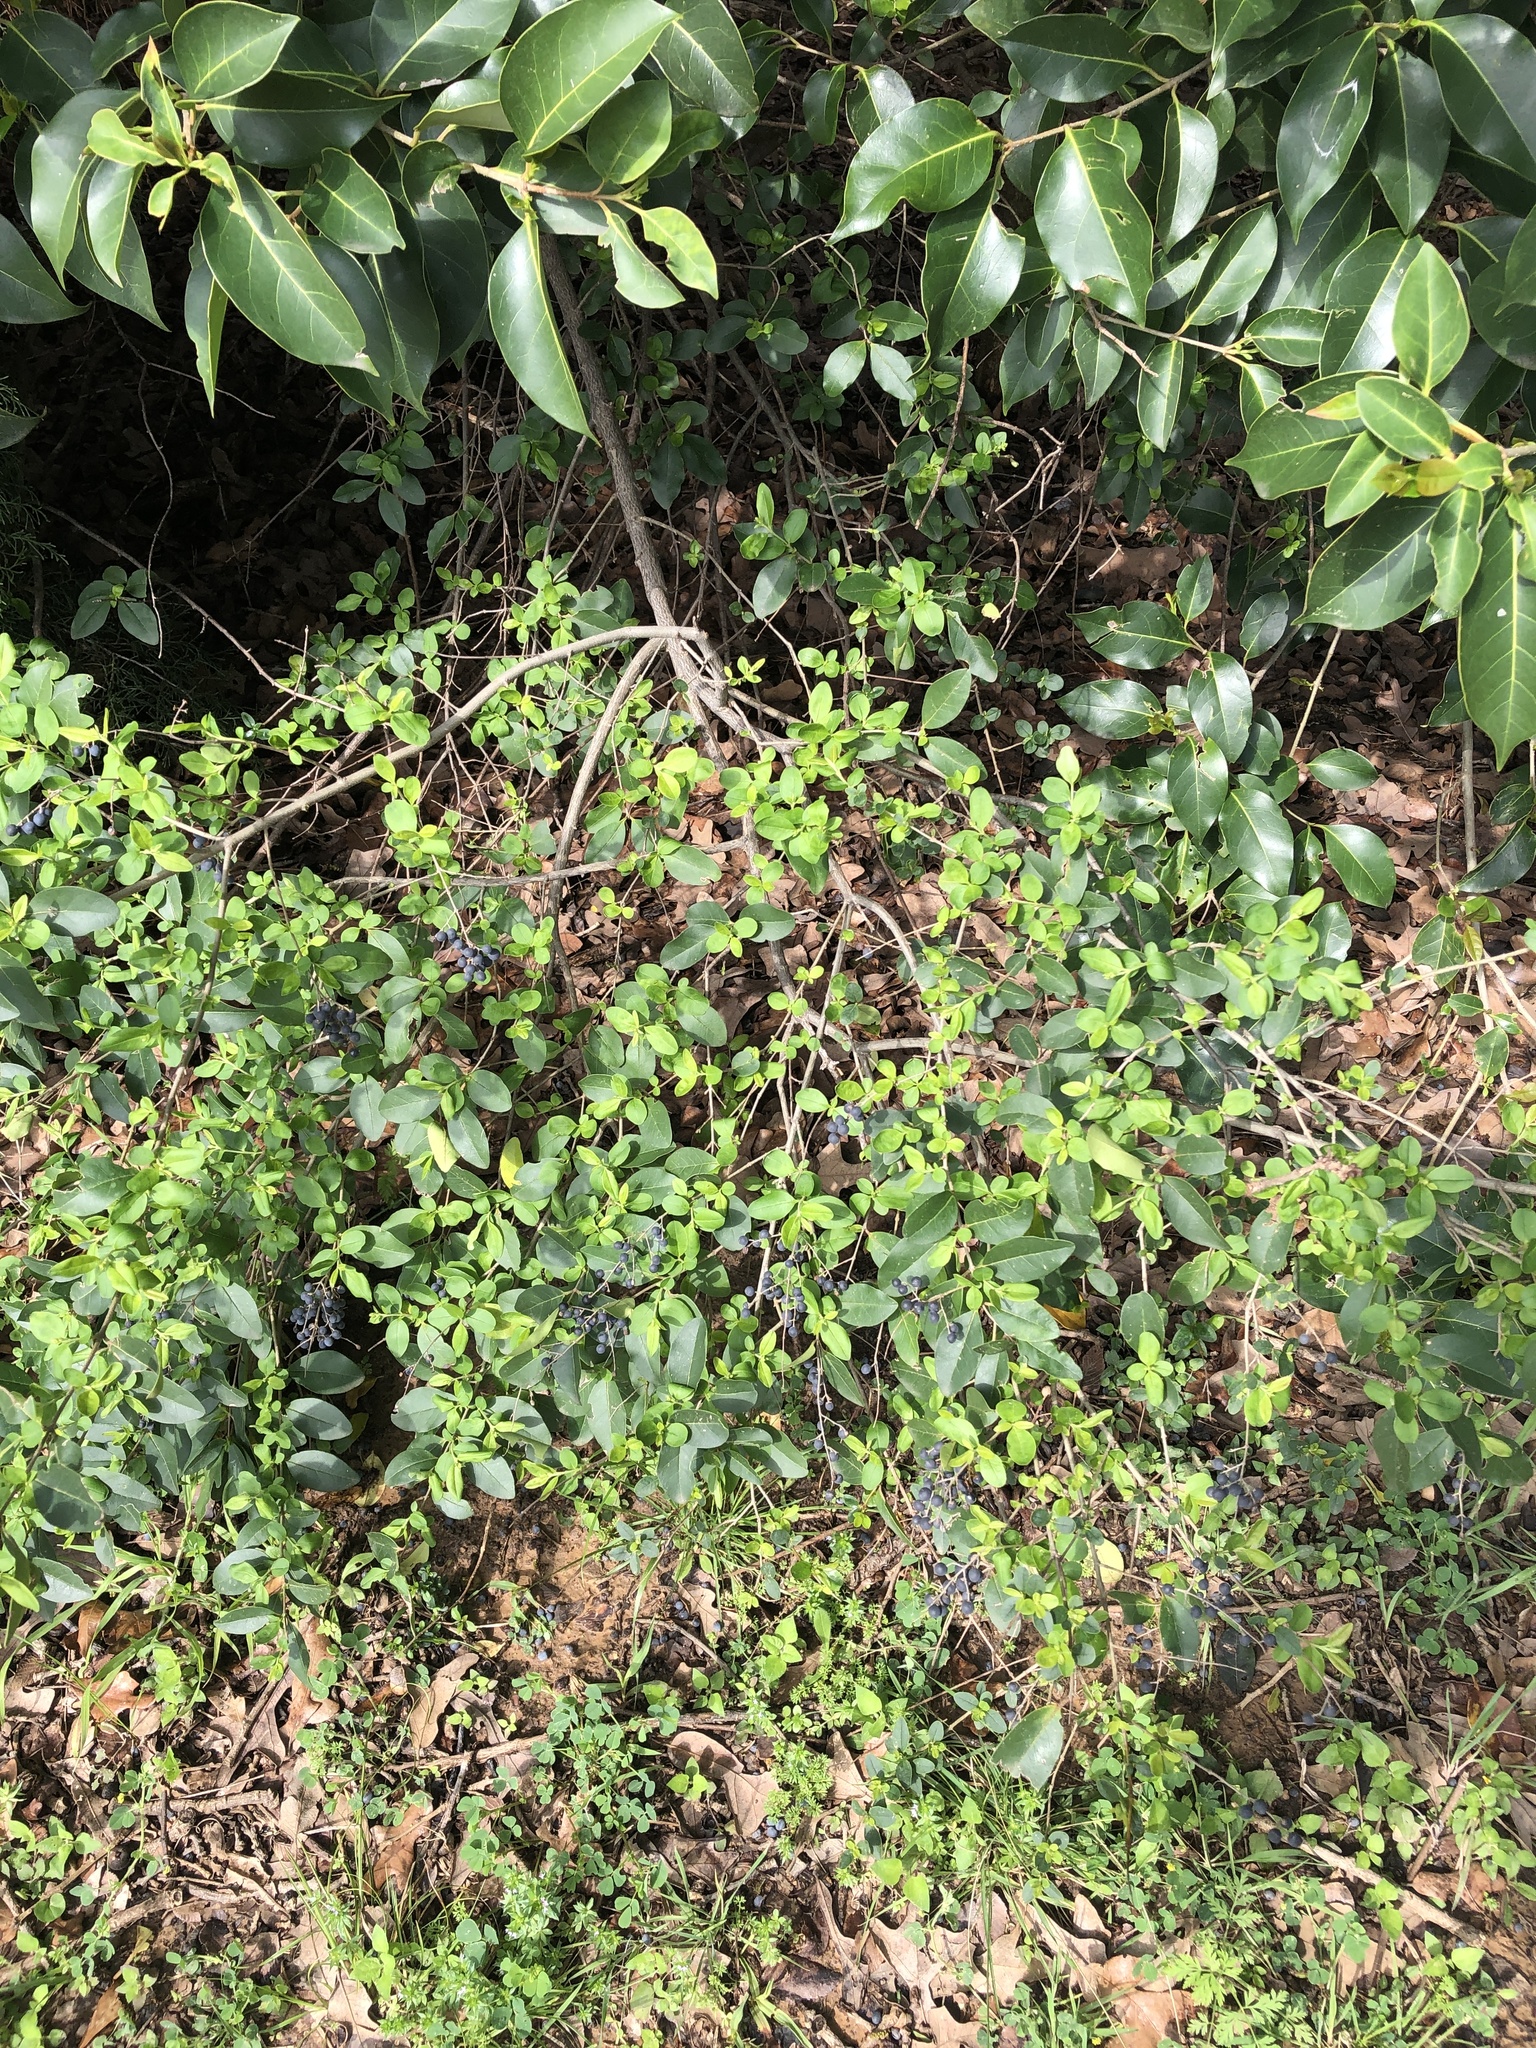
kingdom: Plantae
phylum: Tracheophyta
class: Magnoliopsida
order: Lamiales
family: Oleaceae
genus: Ligustrum
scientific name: Ligustrum sinense
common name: Chinese privet
